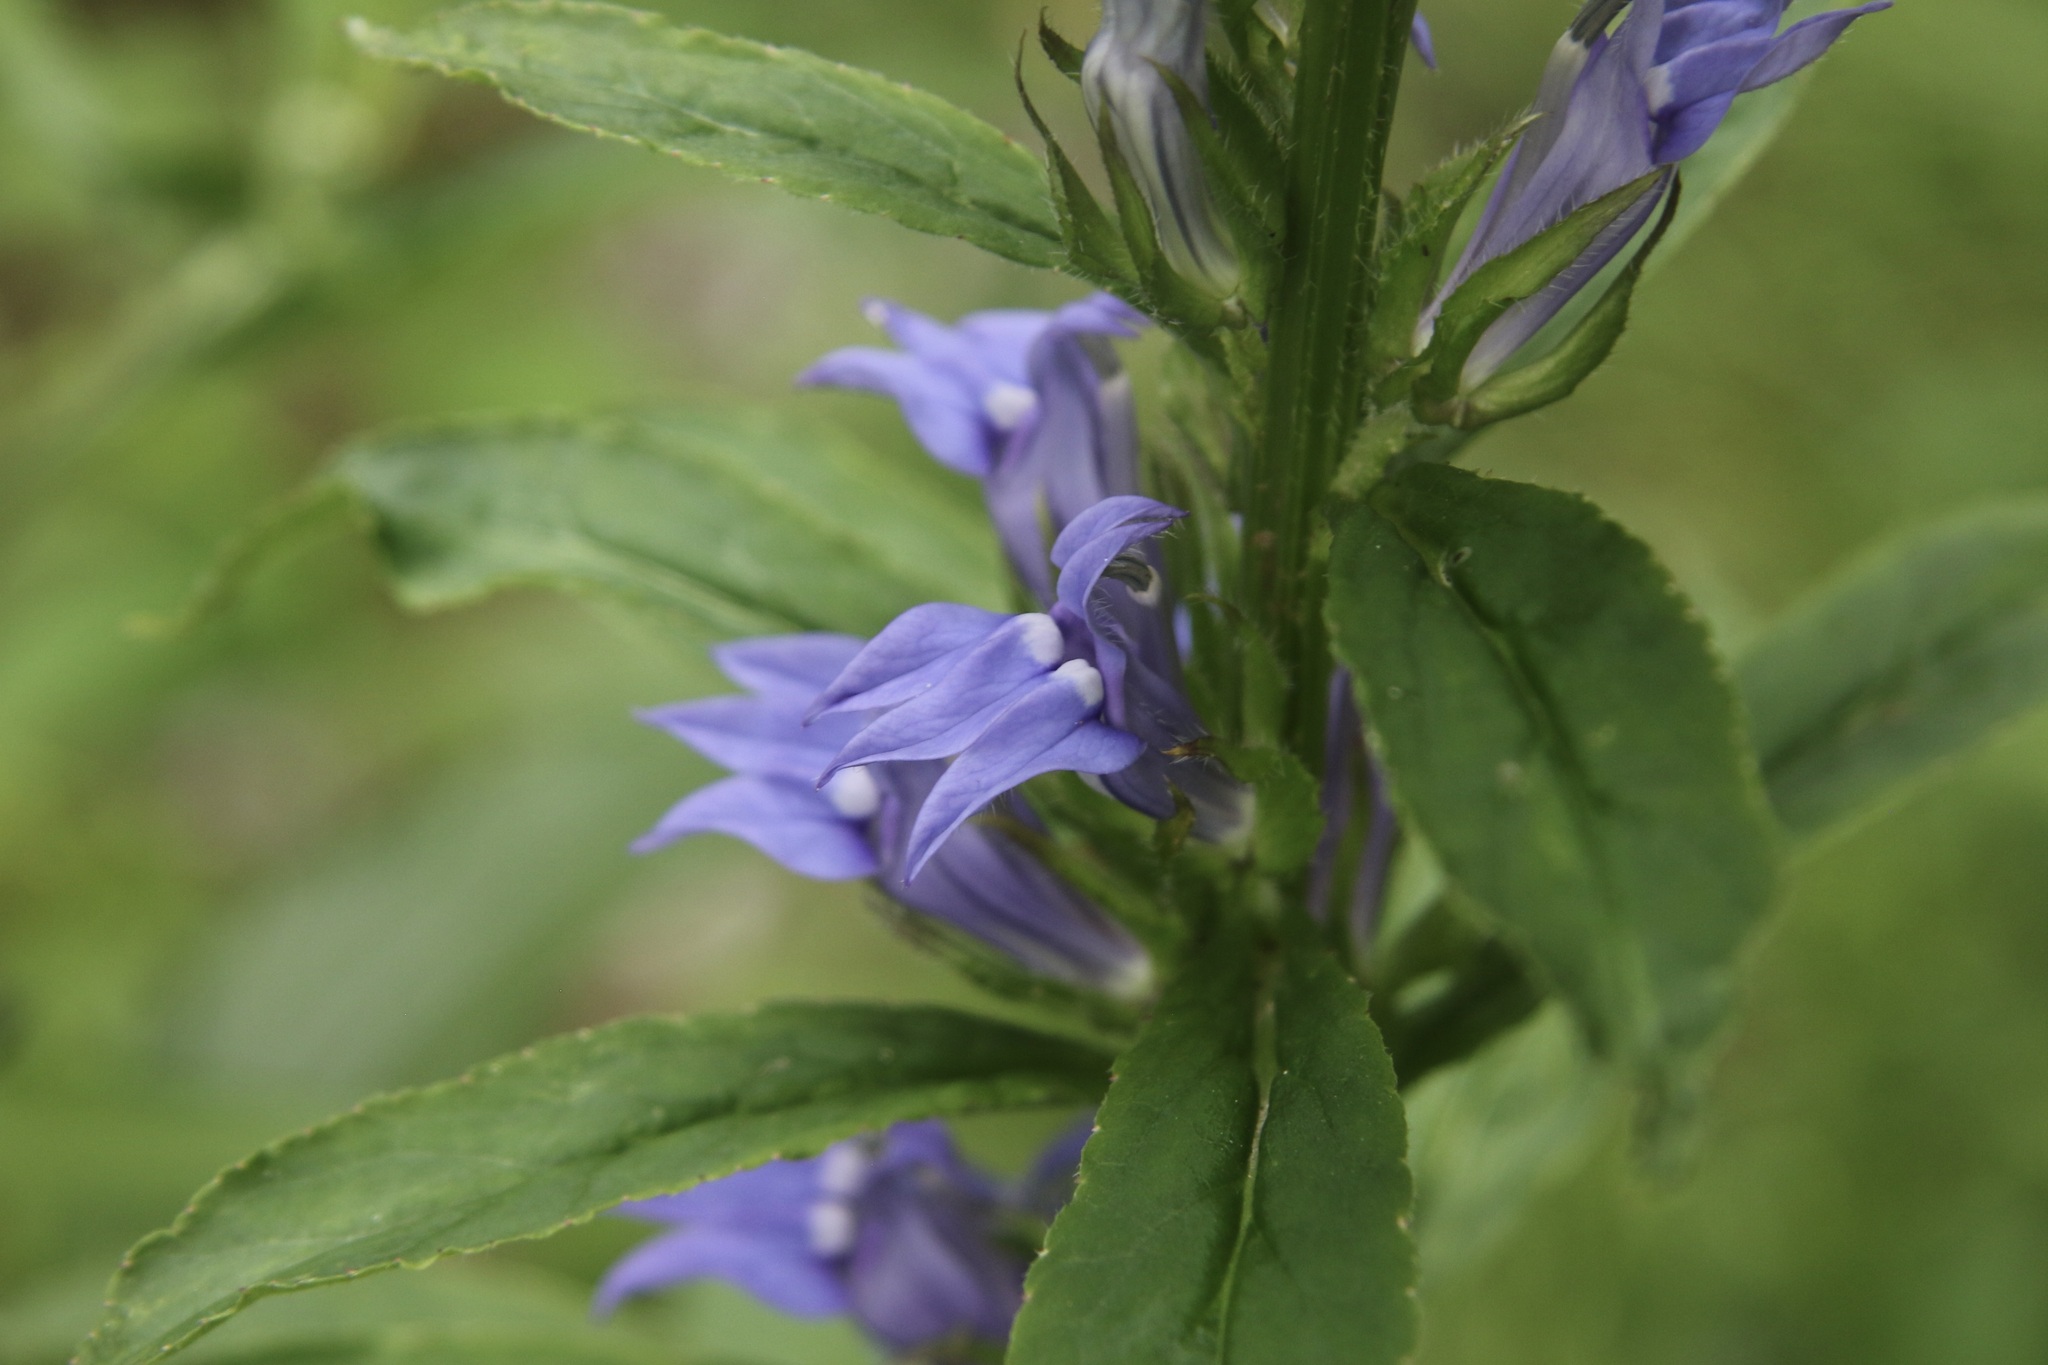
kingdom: Plantae
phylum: Tracheophyta
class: Magnoliopsida
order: Asterales
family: Campanulaceae
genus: Lobelia
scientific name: Lobelia siphilitica
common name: Great lobelia
